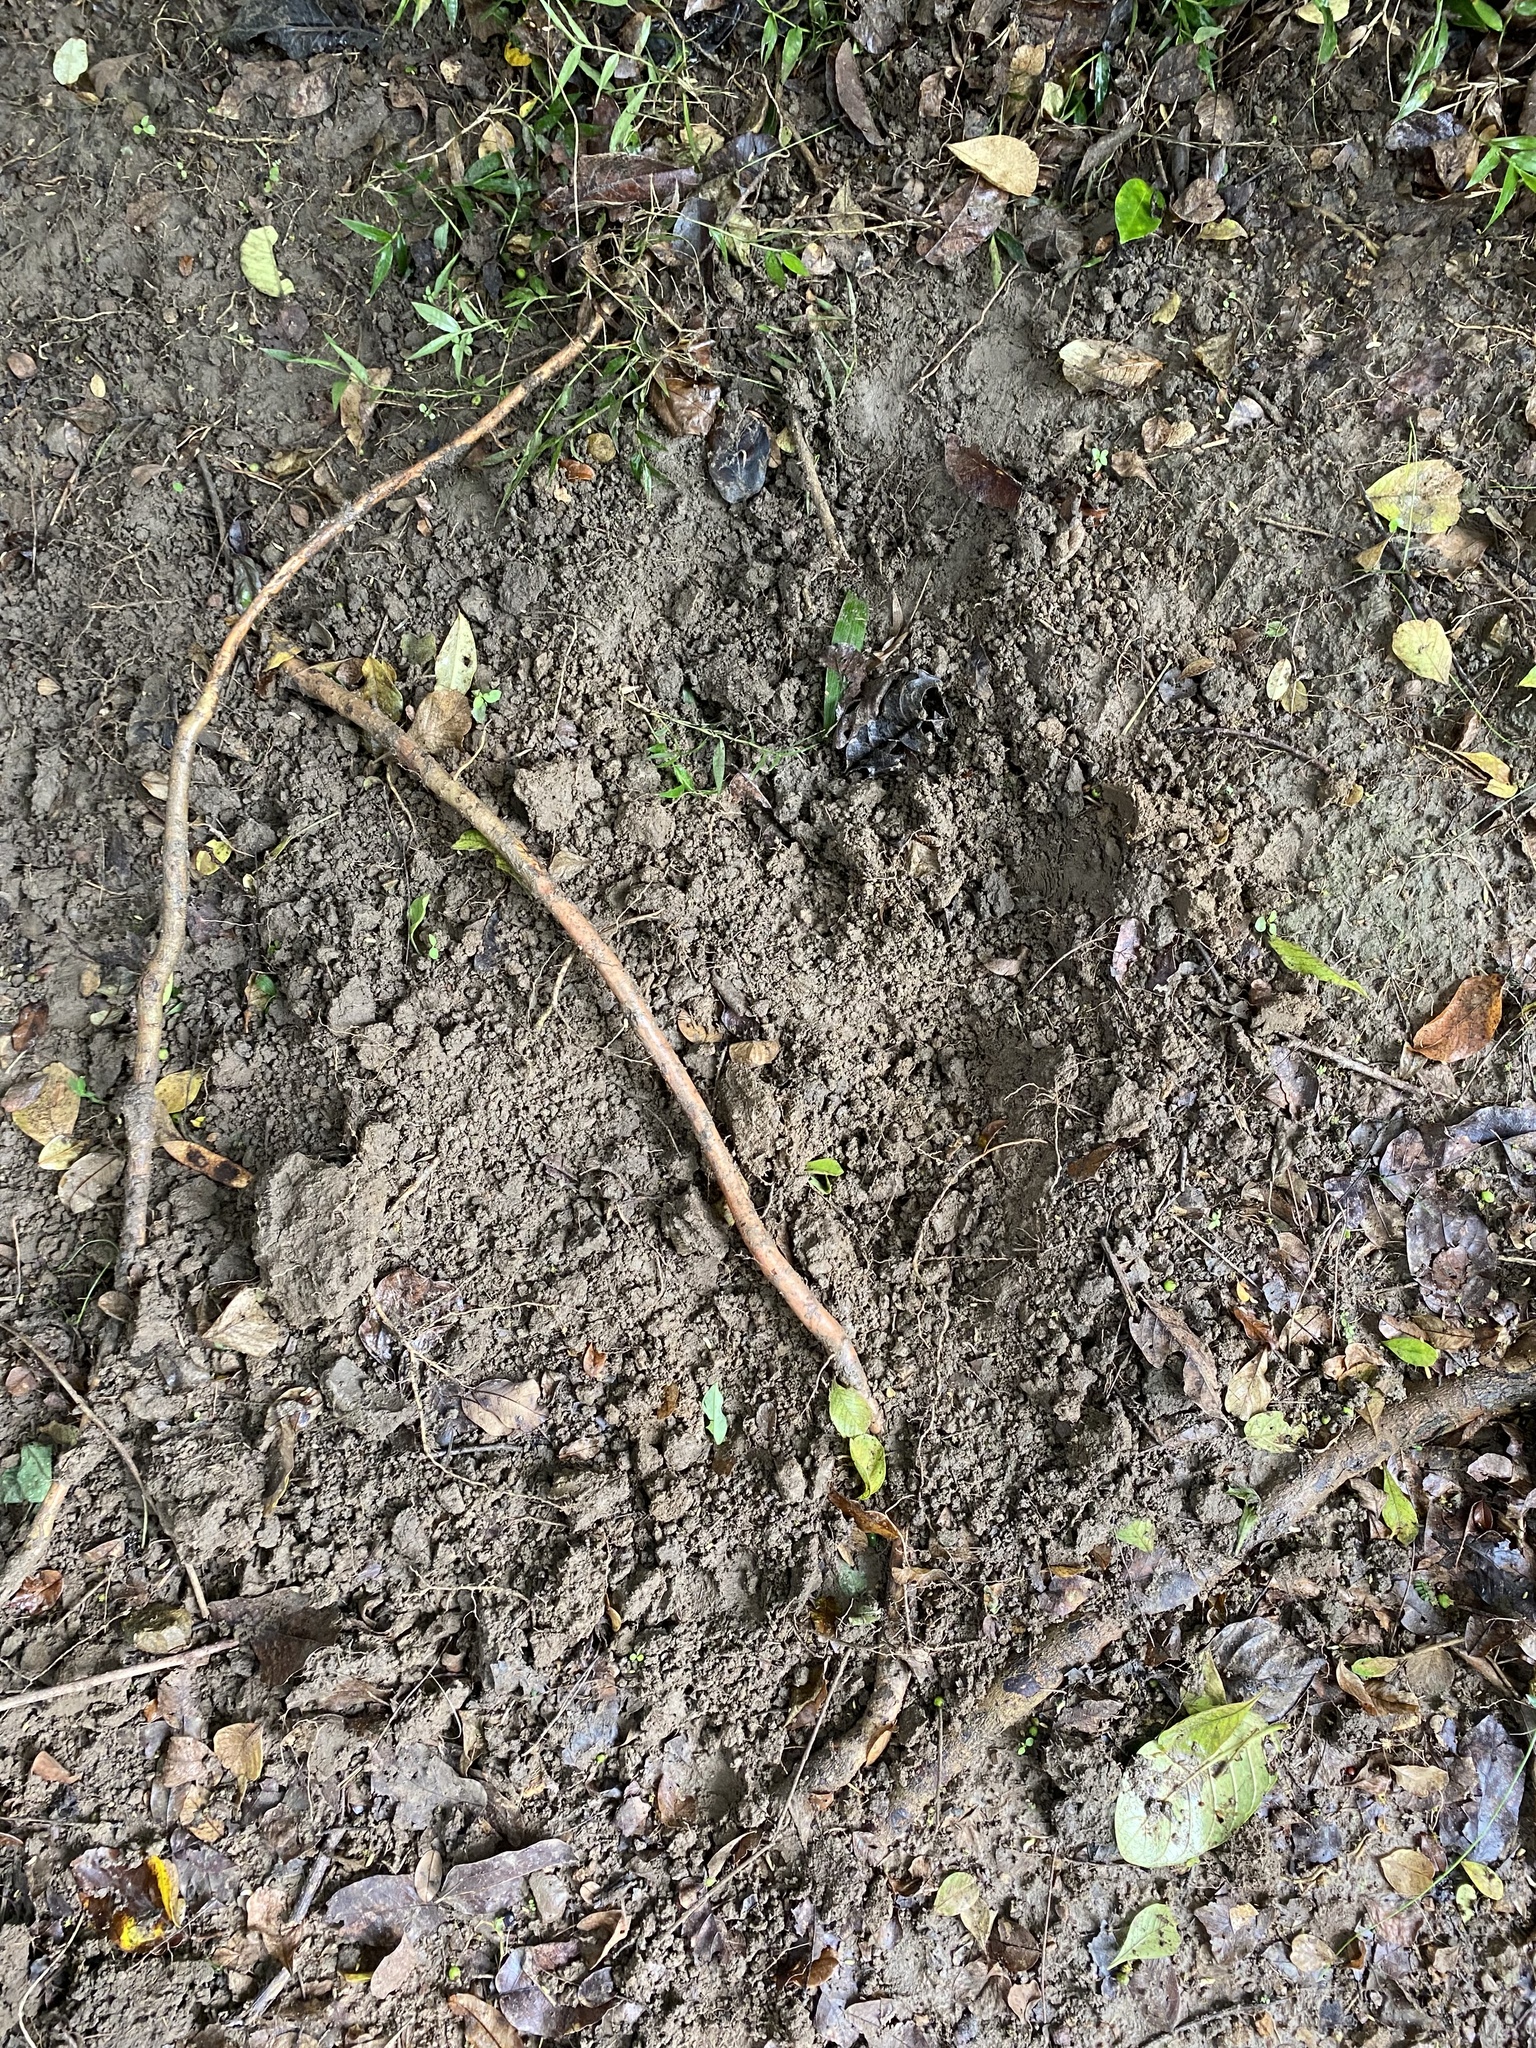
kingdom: Animalia
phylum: Chordata
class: Mammalia
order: Artiodactyla
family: Suidae
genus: Potamochoerus
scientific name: Potamochoerus larvatus
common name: Bushpig
